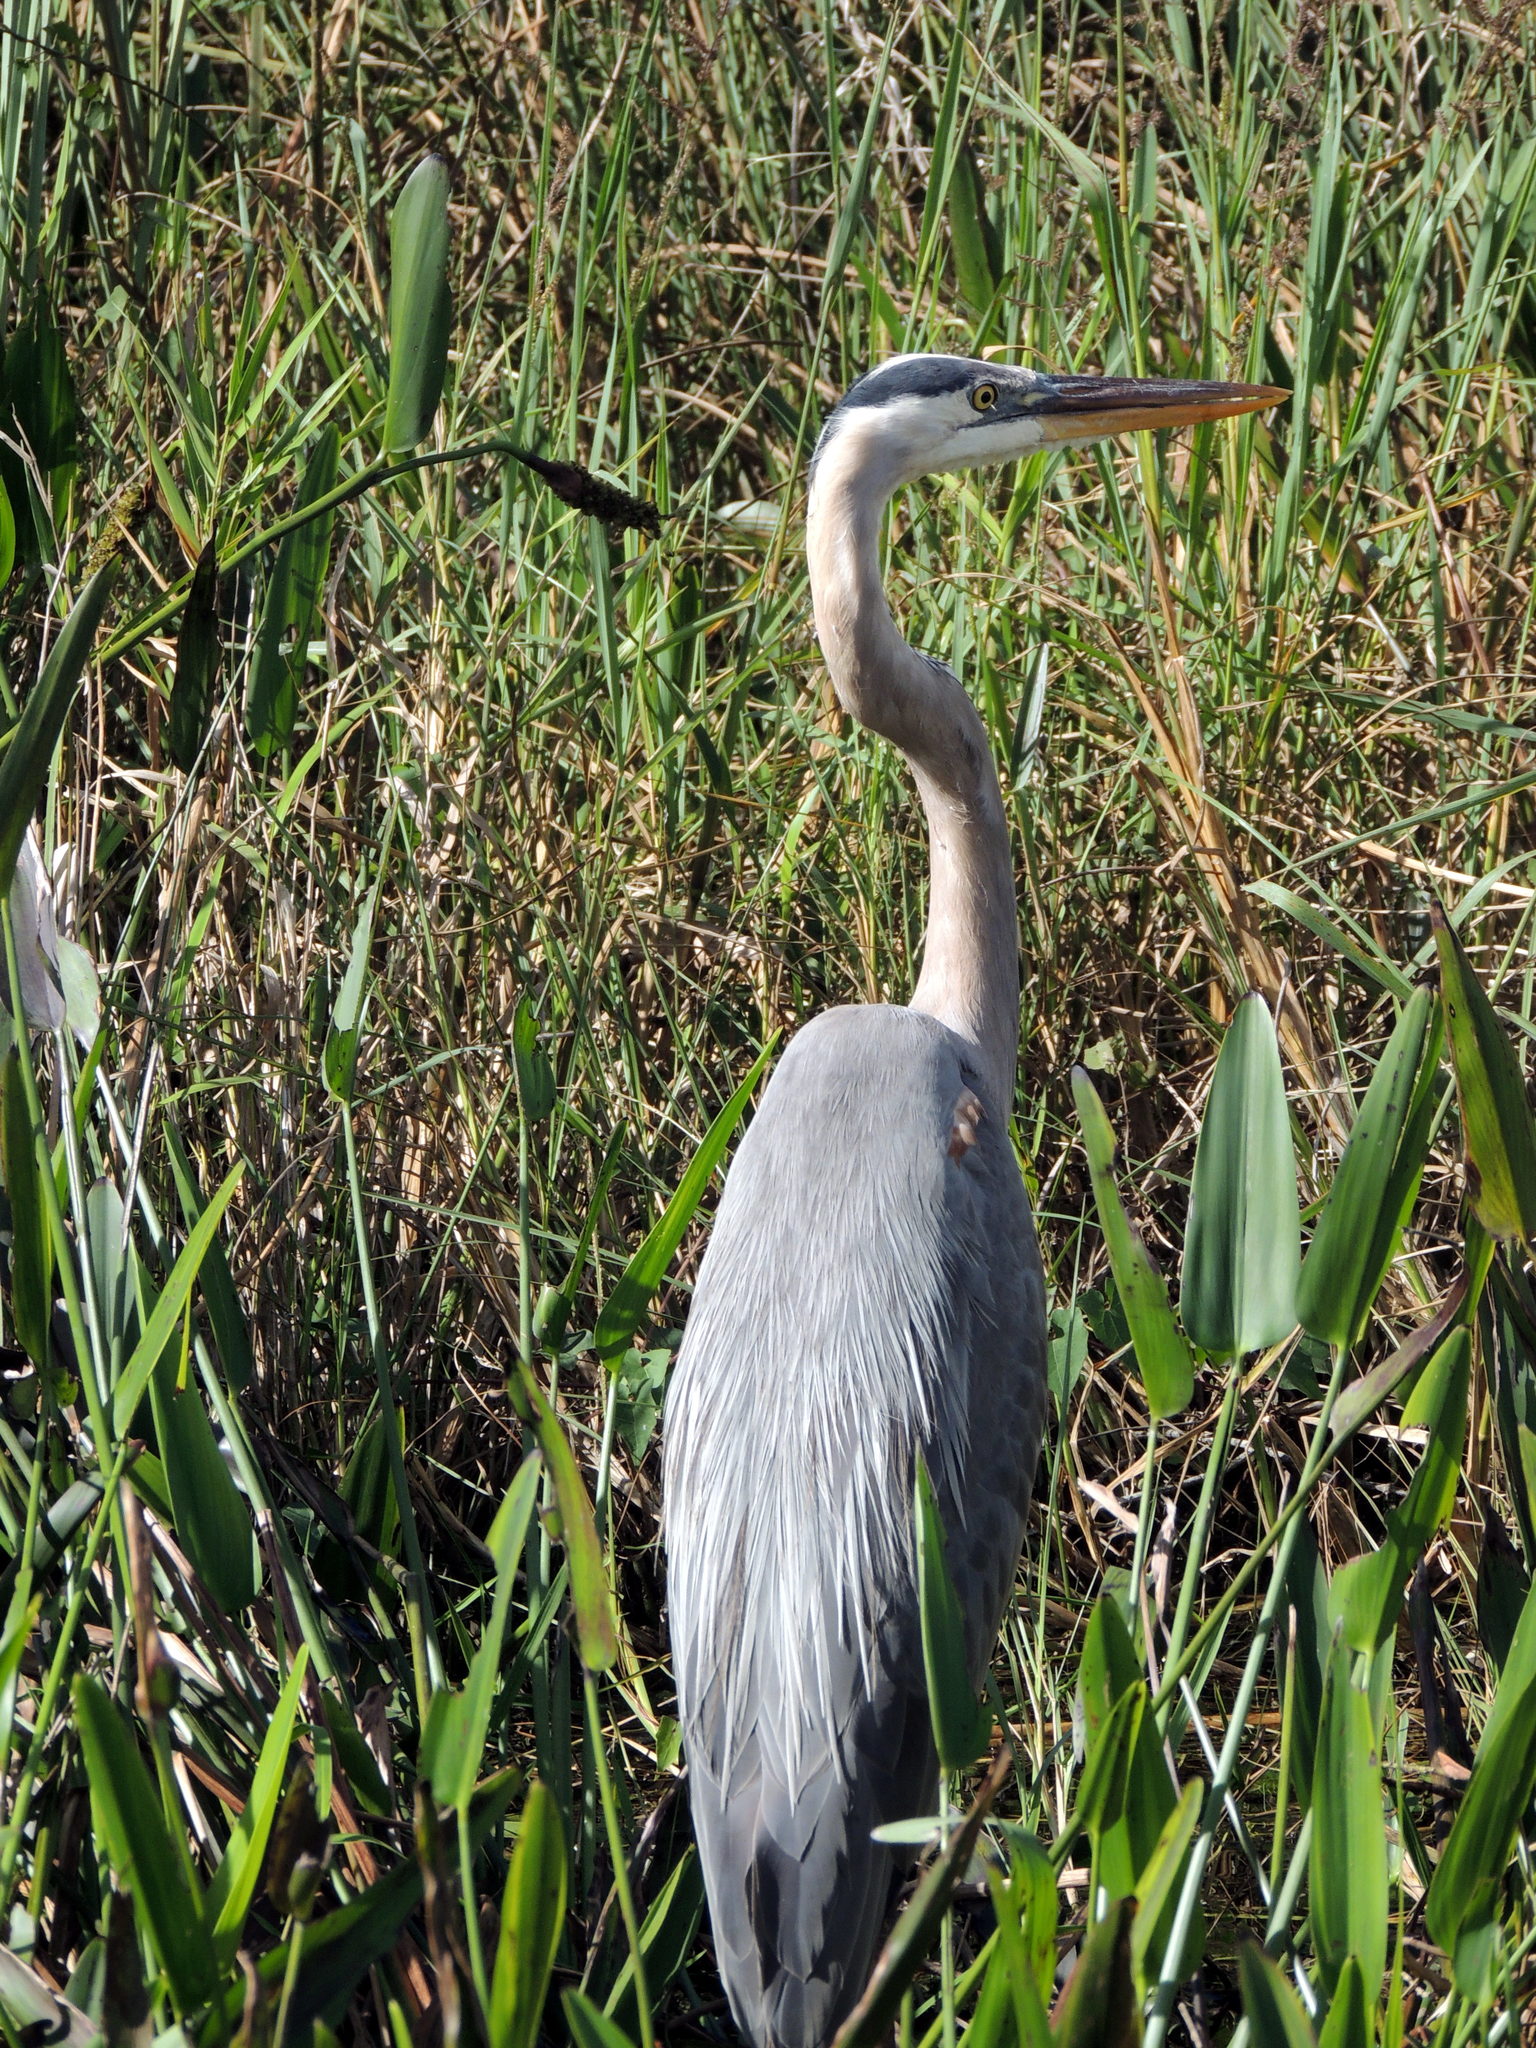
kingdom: Animalia
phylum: Chordata
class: Aves
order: Pelecaniformes
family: Ardeidae
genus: Ardea
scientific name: Ardea herodias
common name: Great blue heron
